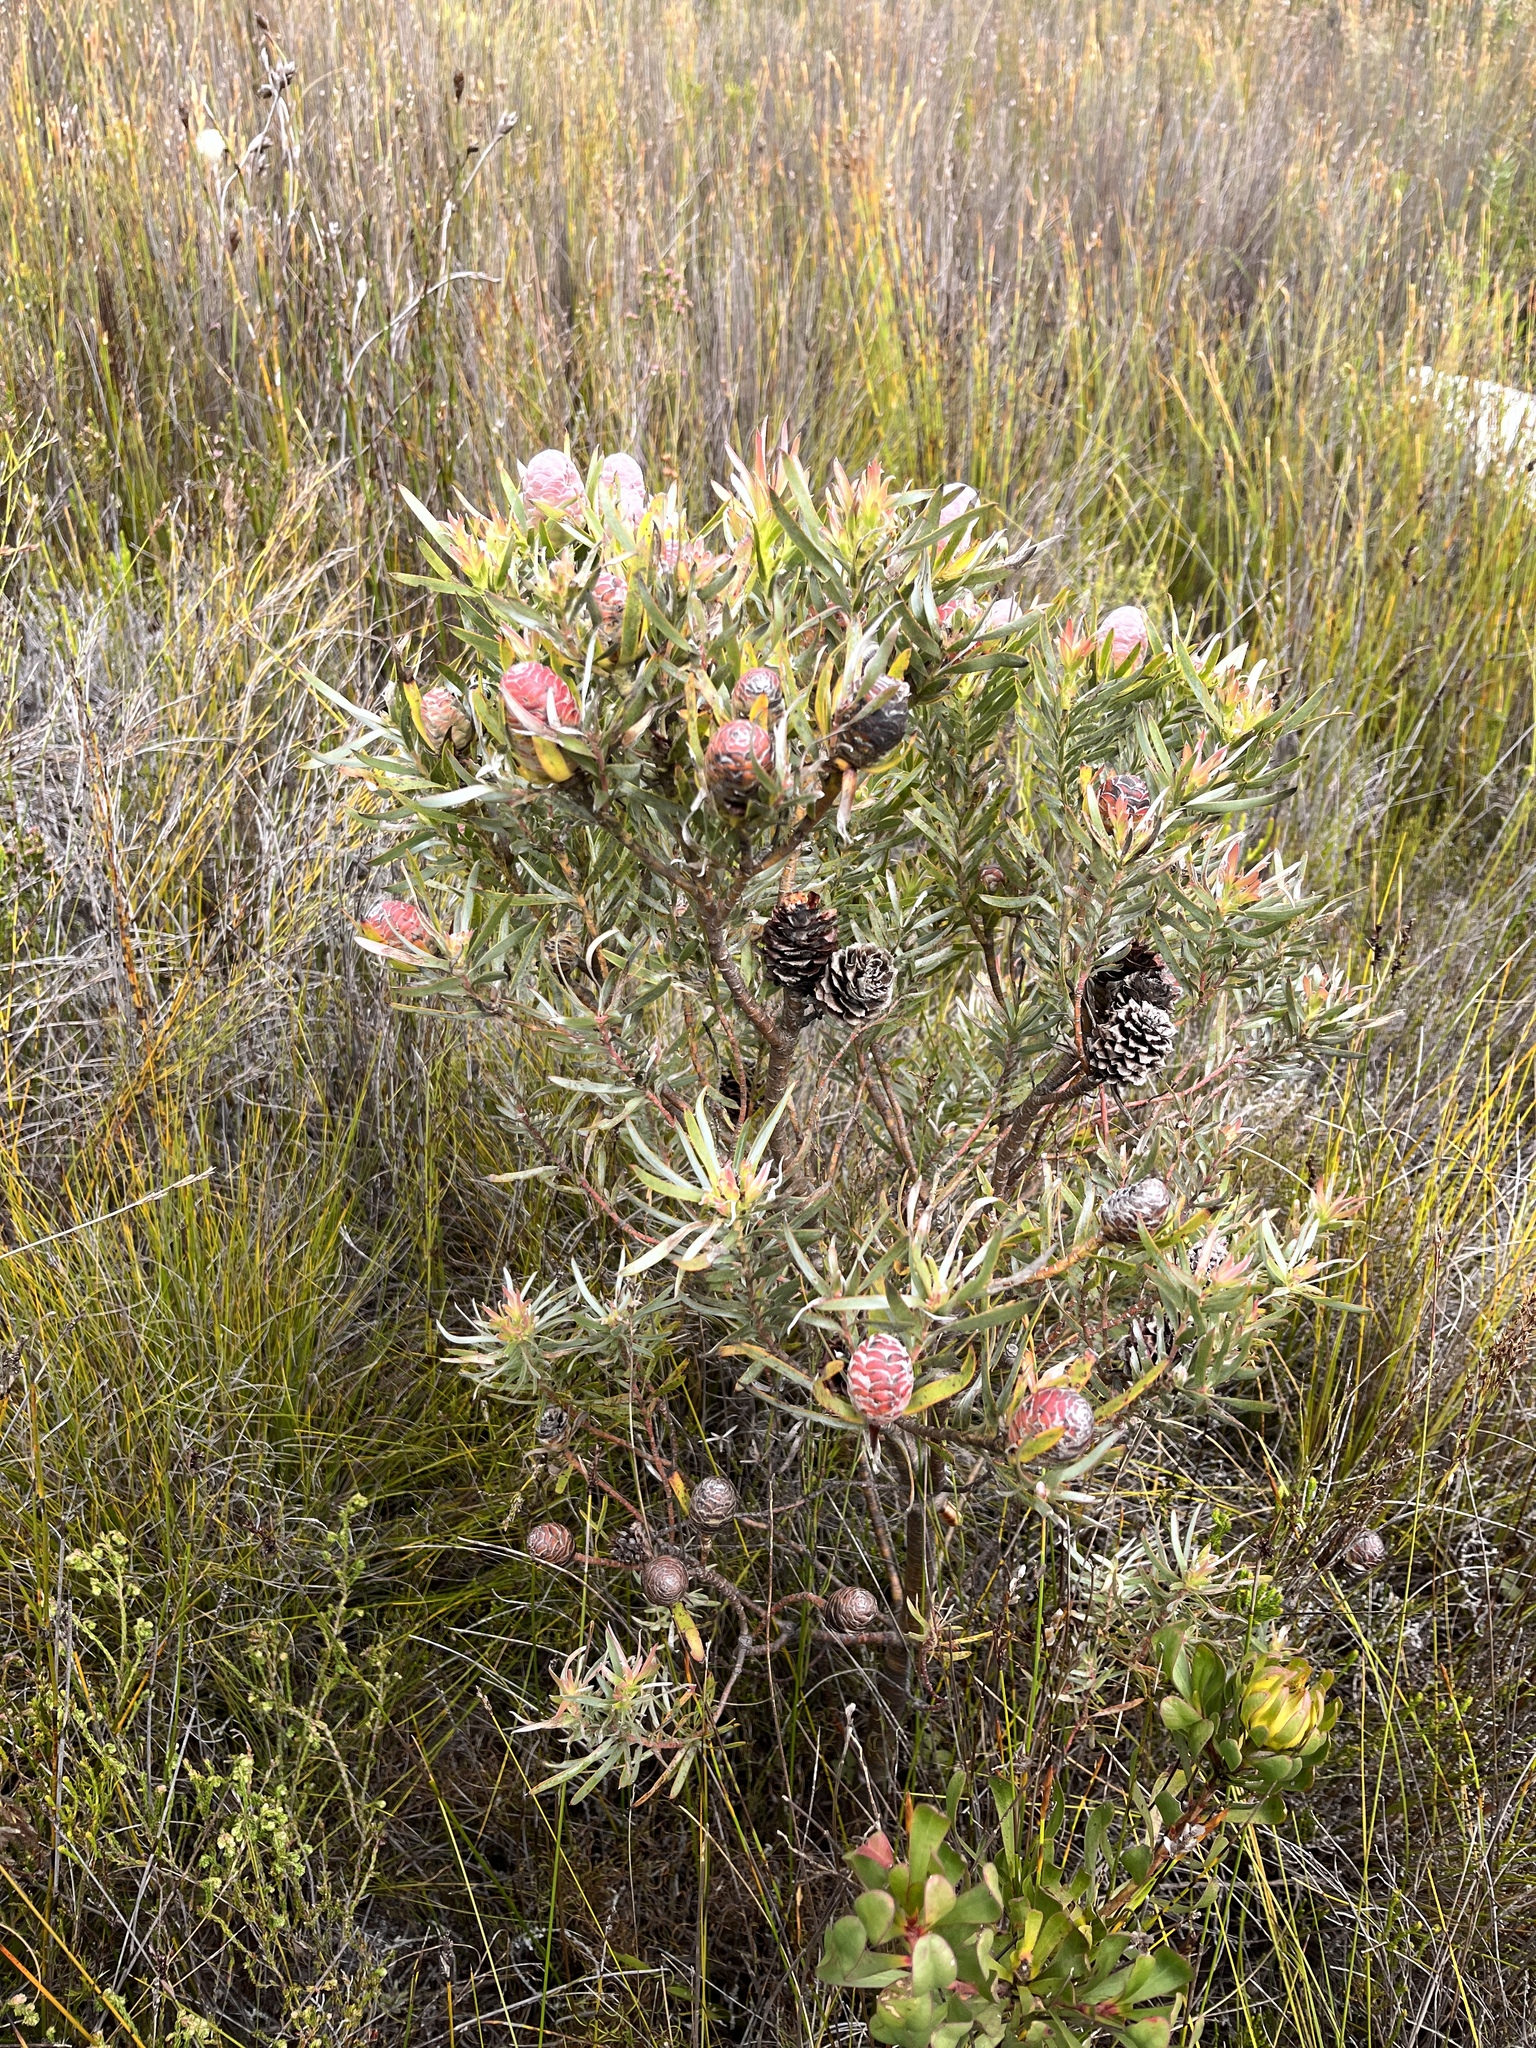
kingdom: Plantae
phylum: Tracheophyta
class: Magnoliopsida
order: Proteales
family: Proteaceae
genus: Leucadendron
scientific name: Leucadendron xanthoconus
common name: Sickle-leaf conebush
